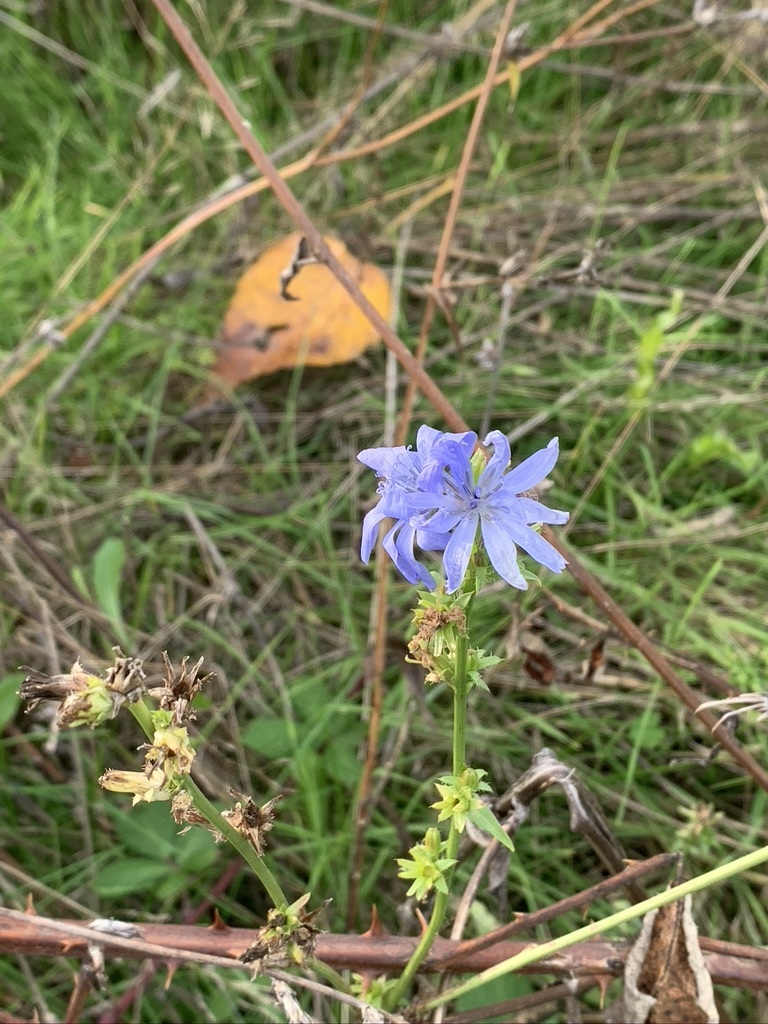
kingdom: Plantae
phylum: Tracheophyta
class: Magnoliopsida
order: Asterales
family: Asteraceae
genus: Cichorium
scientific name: Cichorium intybus
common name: Chicory
